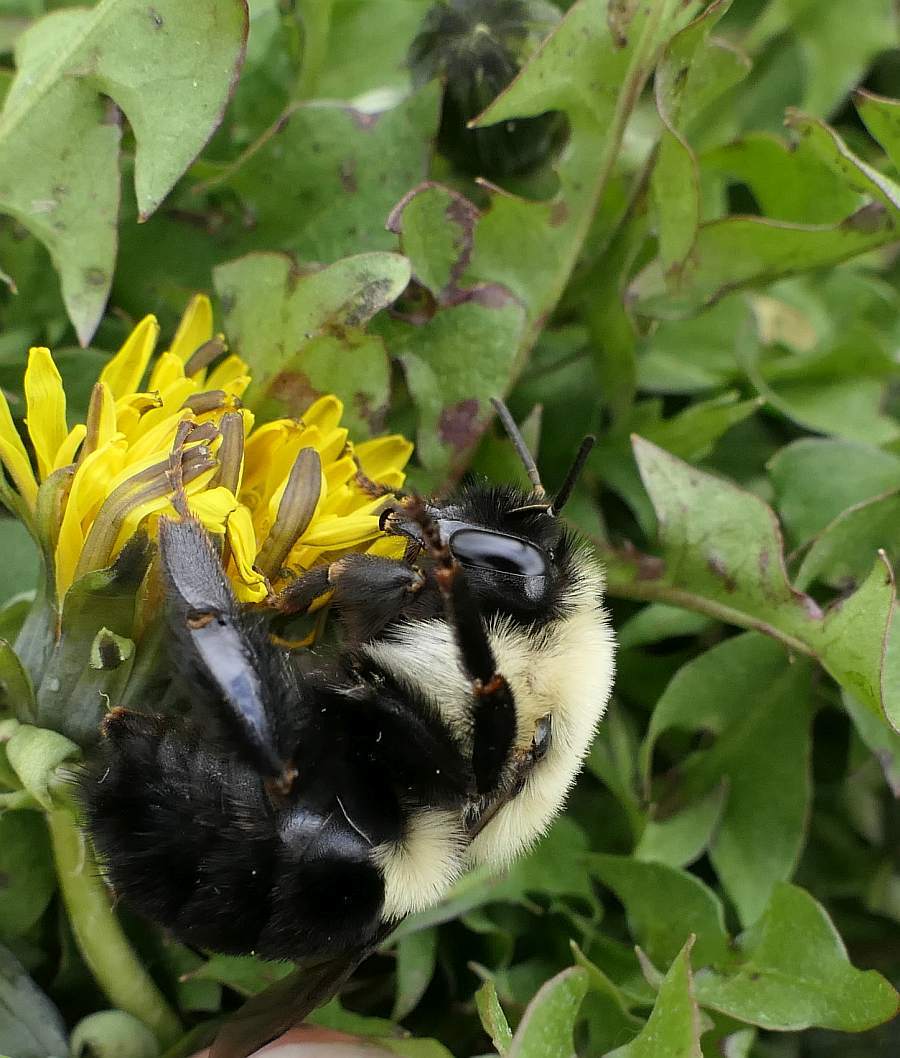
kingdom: Animalia
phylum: Arthropoda
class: Insecta
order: Hymenoptera
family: Apidae
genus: Bombus
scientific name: Bombus impatiens
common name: Common eastern bumble bee
